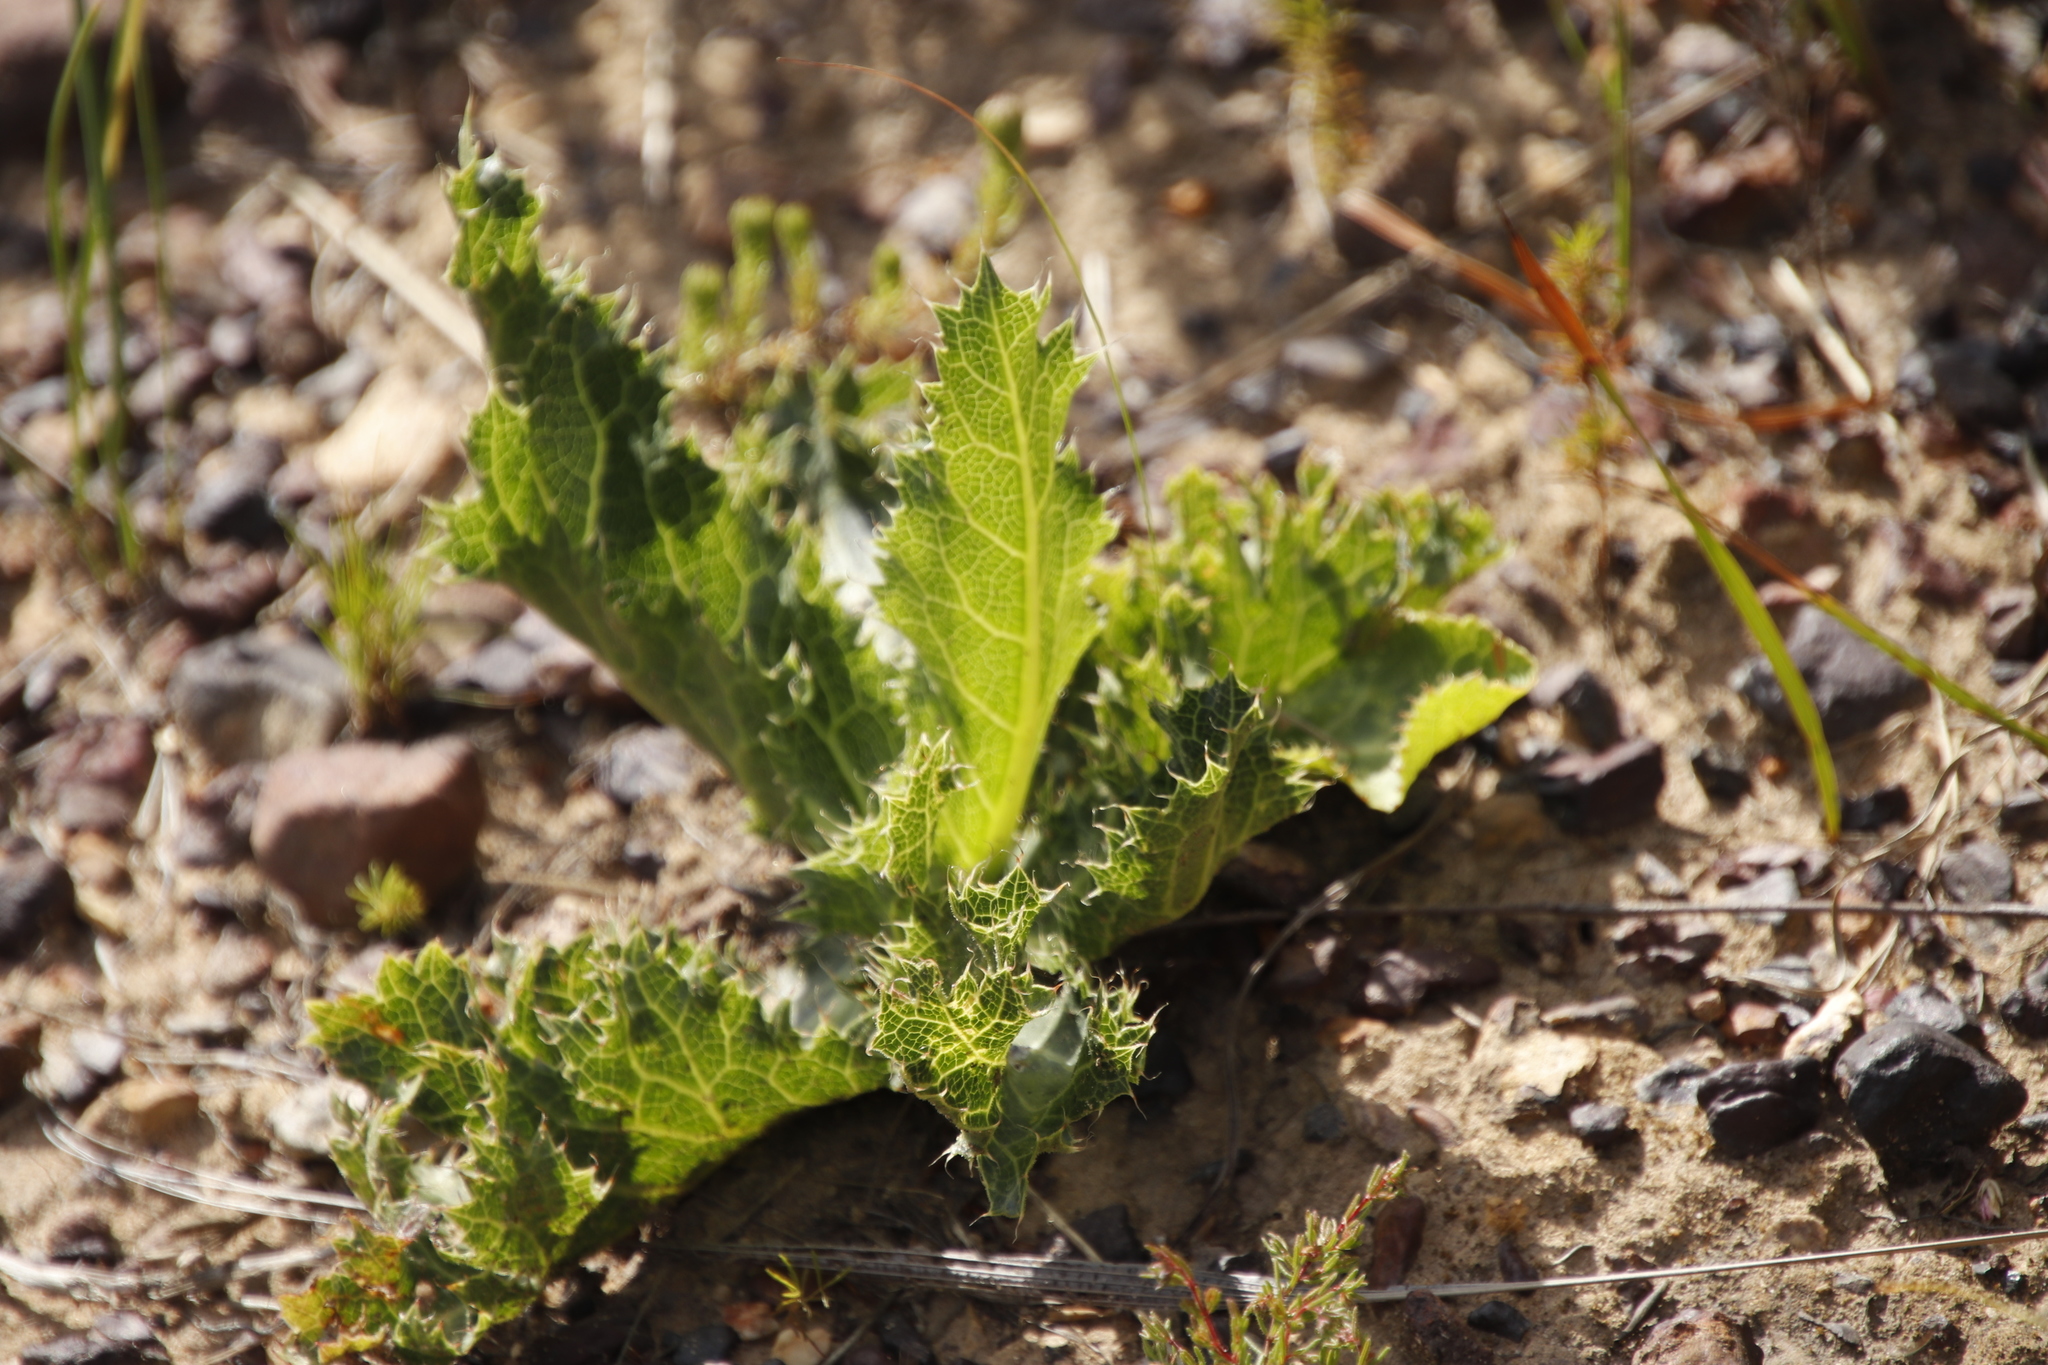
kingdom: Plantae
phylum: Tracheophyta
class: Magnoliopsida
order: Apiales
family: Apiaceae
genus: Lichtensteinia
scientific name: Lichtensteinia lacera
